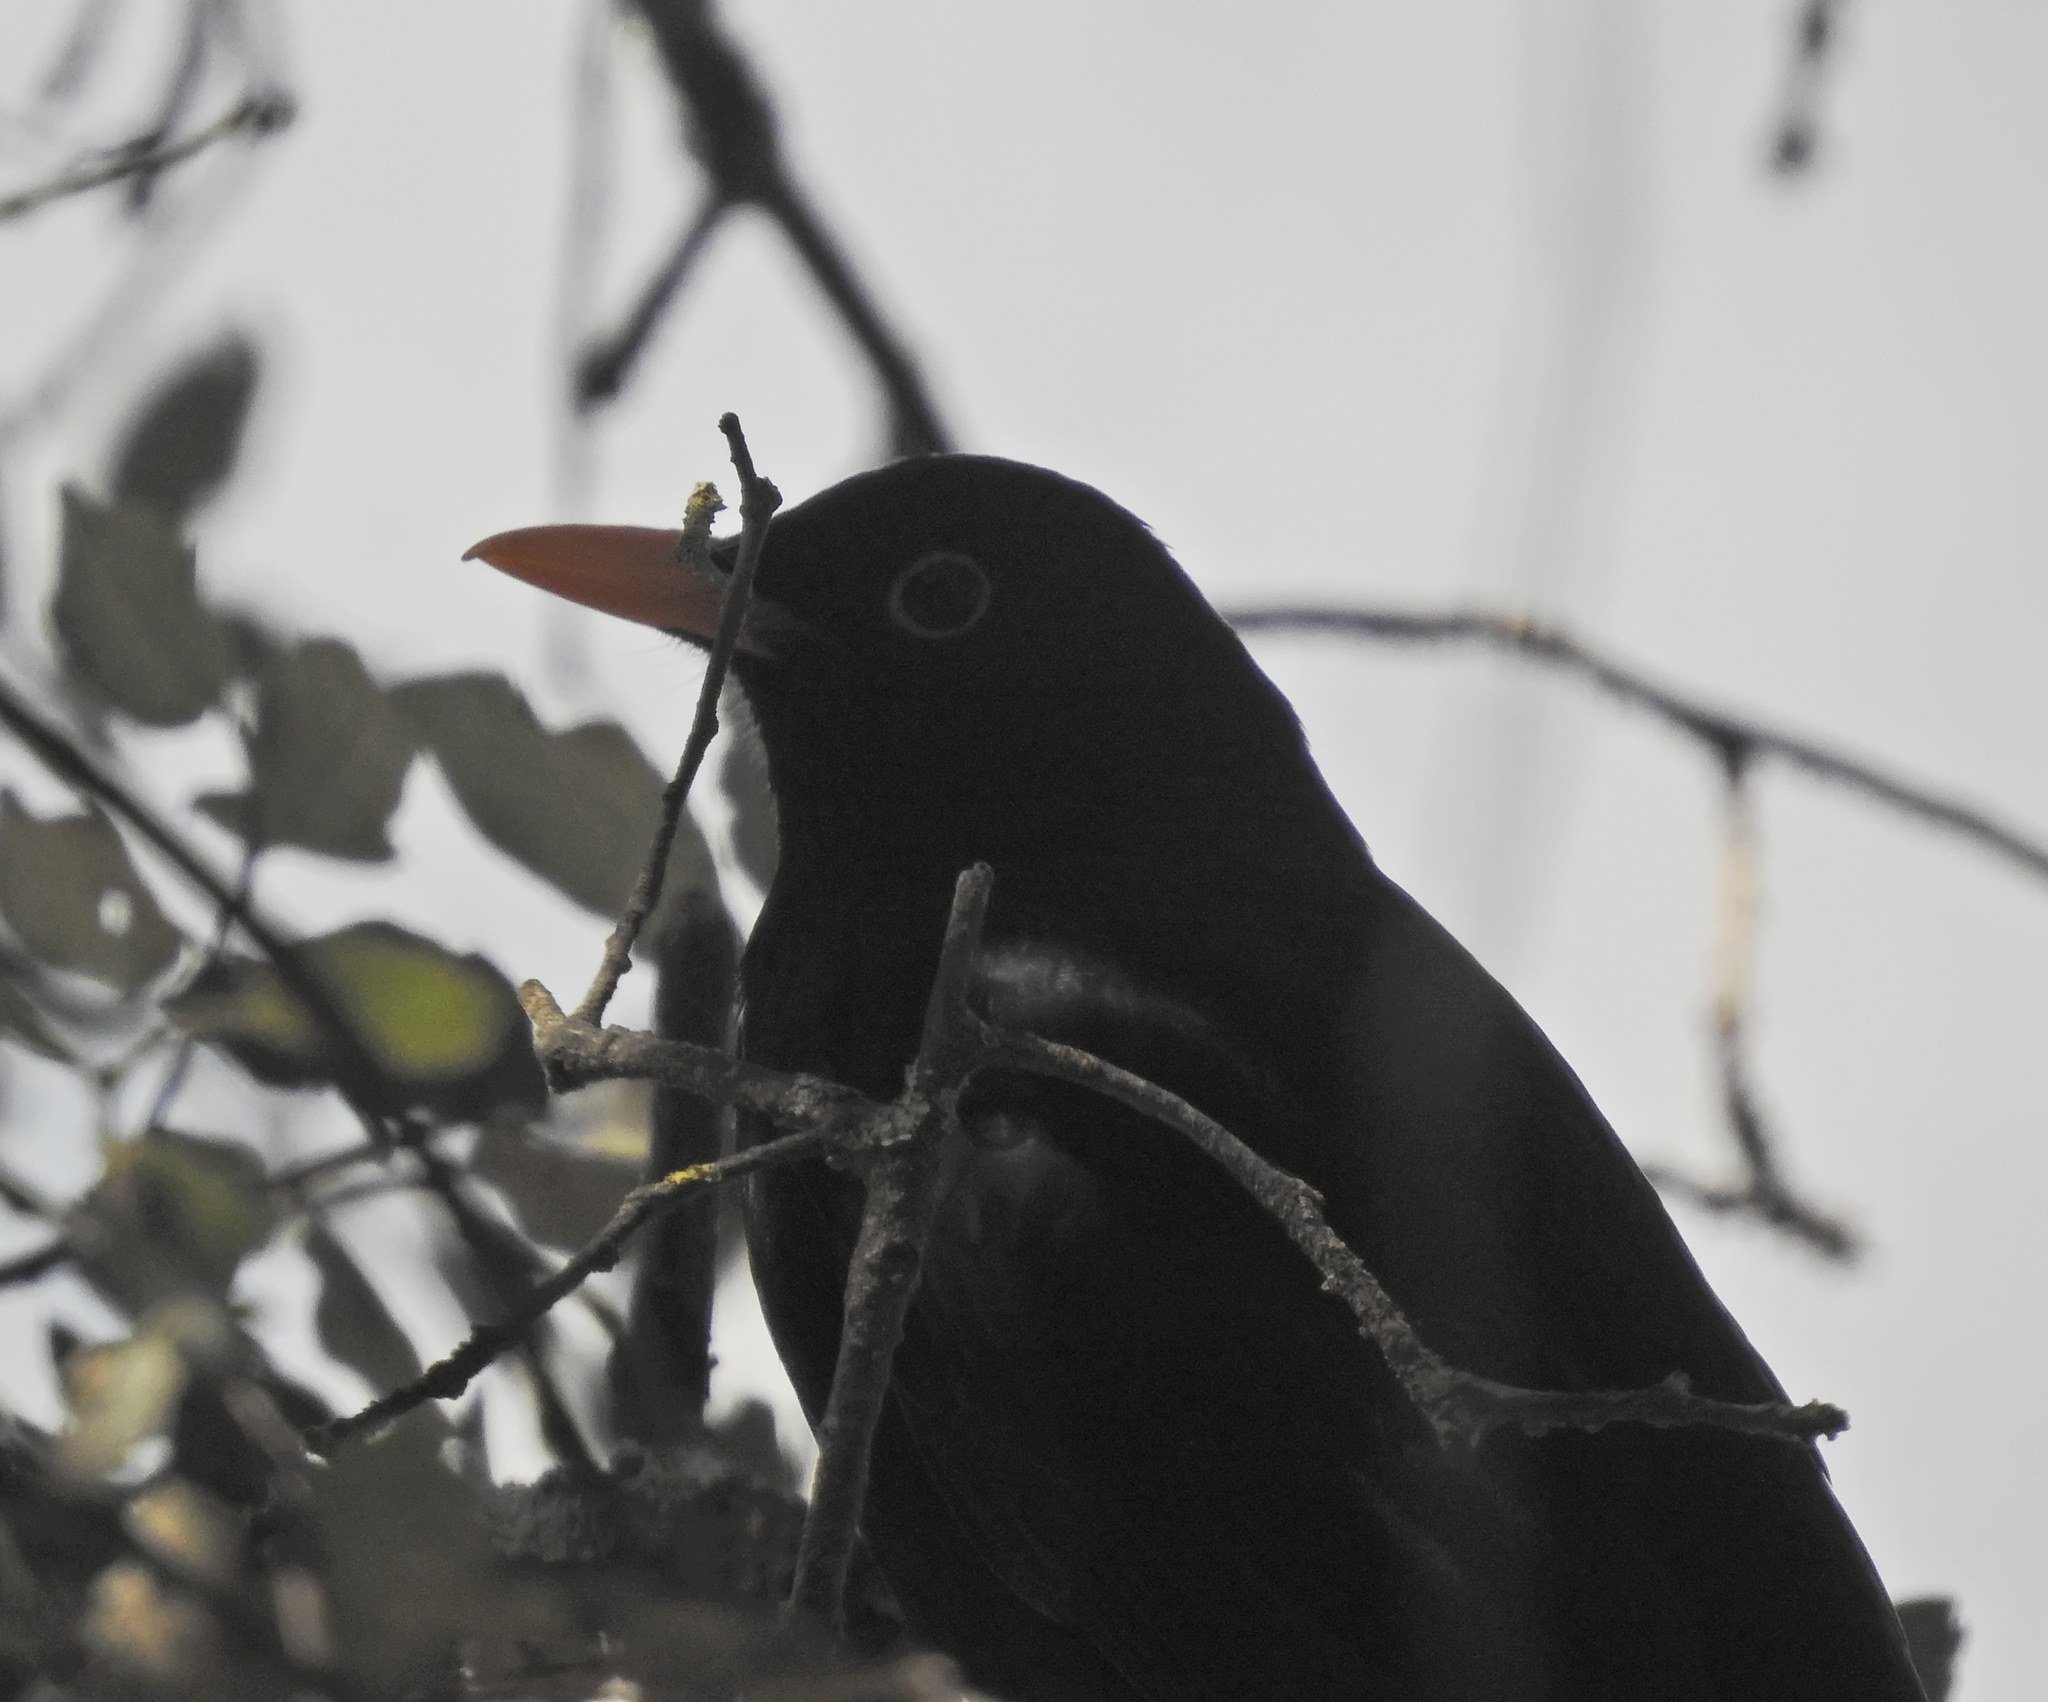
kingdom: Animalia
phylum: Chordata
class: Aves
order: Passeriformes
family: Turdidae
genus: Turdus
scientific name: Turdus merula
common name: Common blackbird
